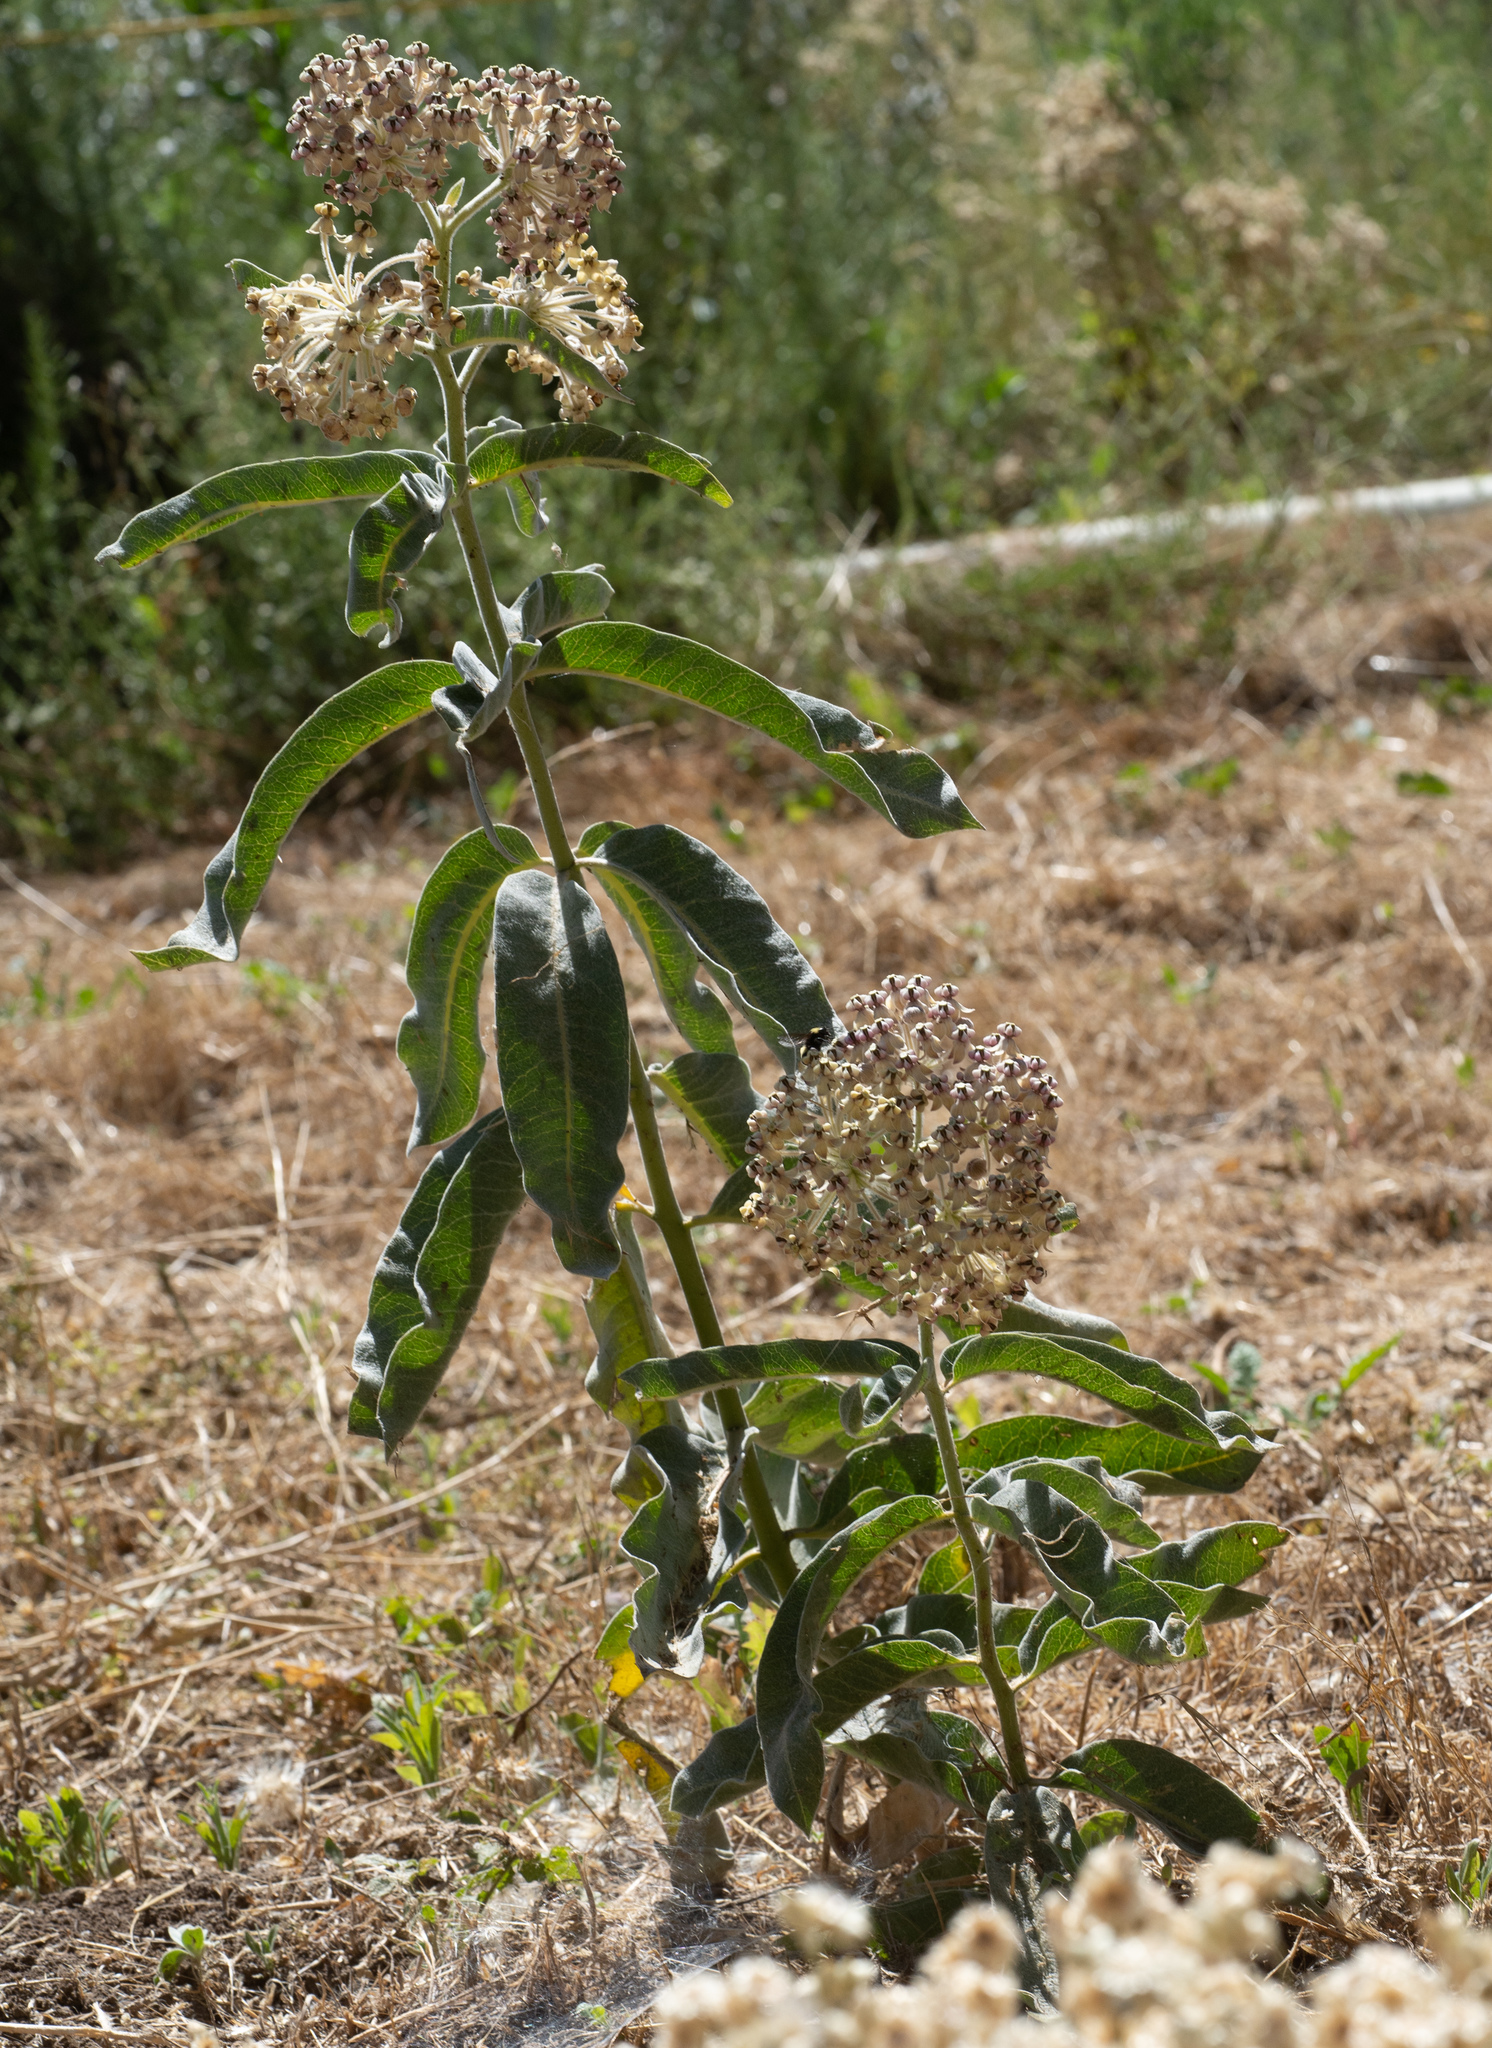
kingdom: Plantae
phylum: Tracheophyta
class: Magnoliopsida
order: Gentianales
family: Apocynaceae
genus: Asclepias
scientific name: Asclepias eriocarpa
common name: Indian milkweed
